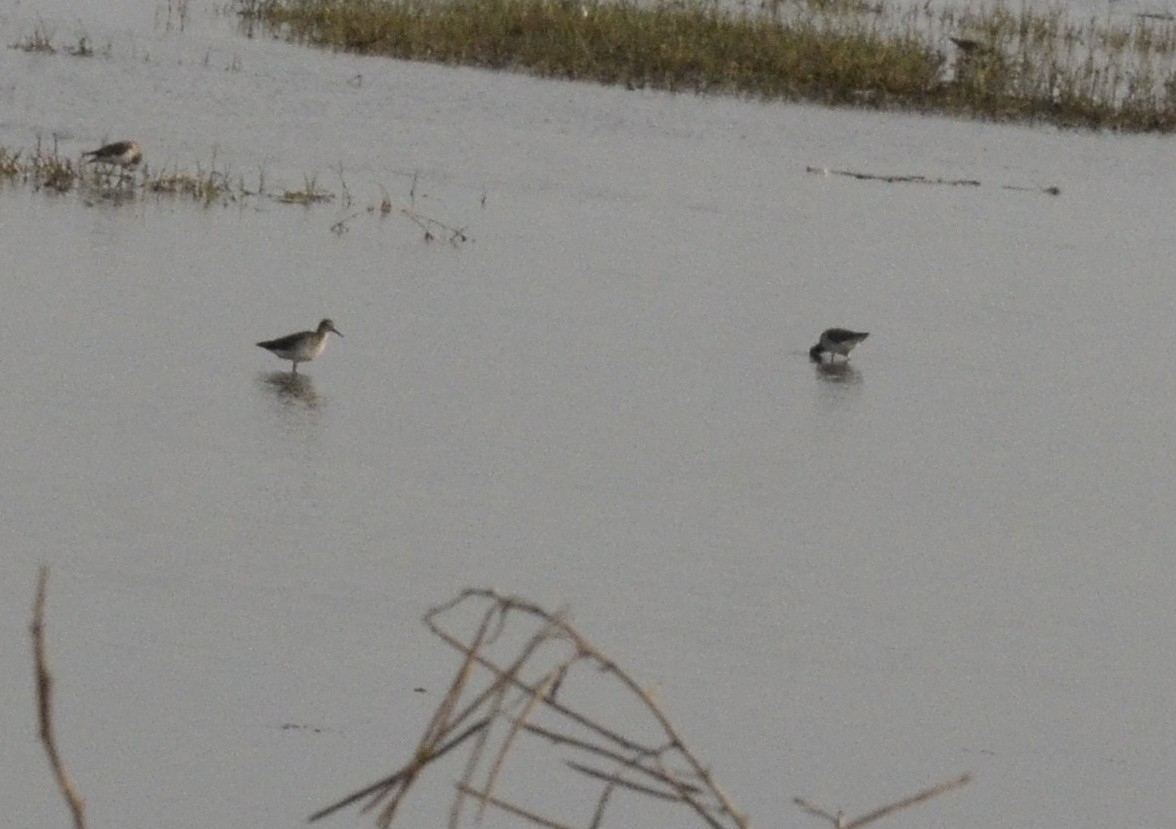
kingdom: Animalia
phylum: Chordata
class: Aves
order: Charadriiformes
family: Scolopacidae
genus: Tringa
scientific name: Tringa glareola
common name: Wood sandpiper
